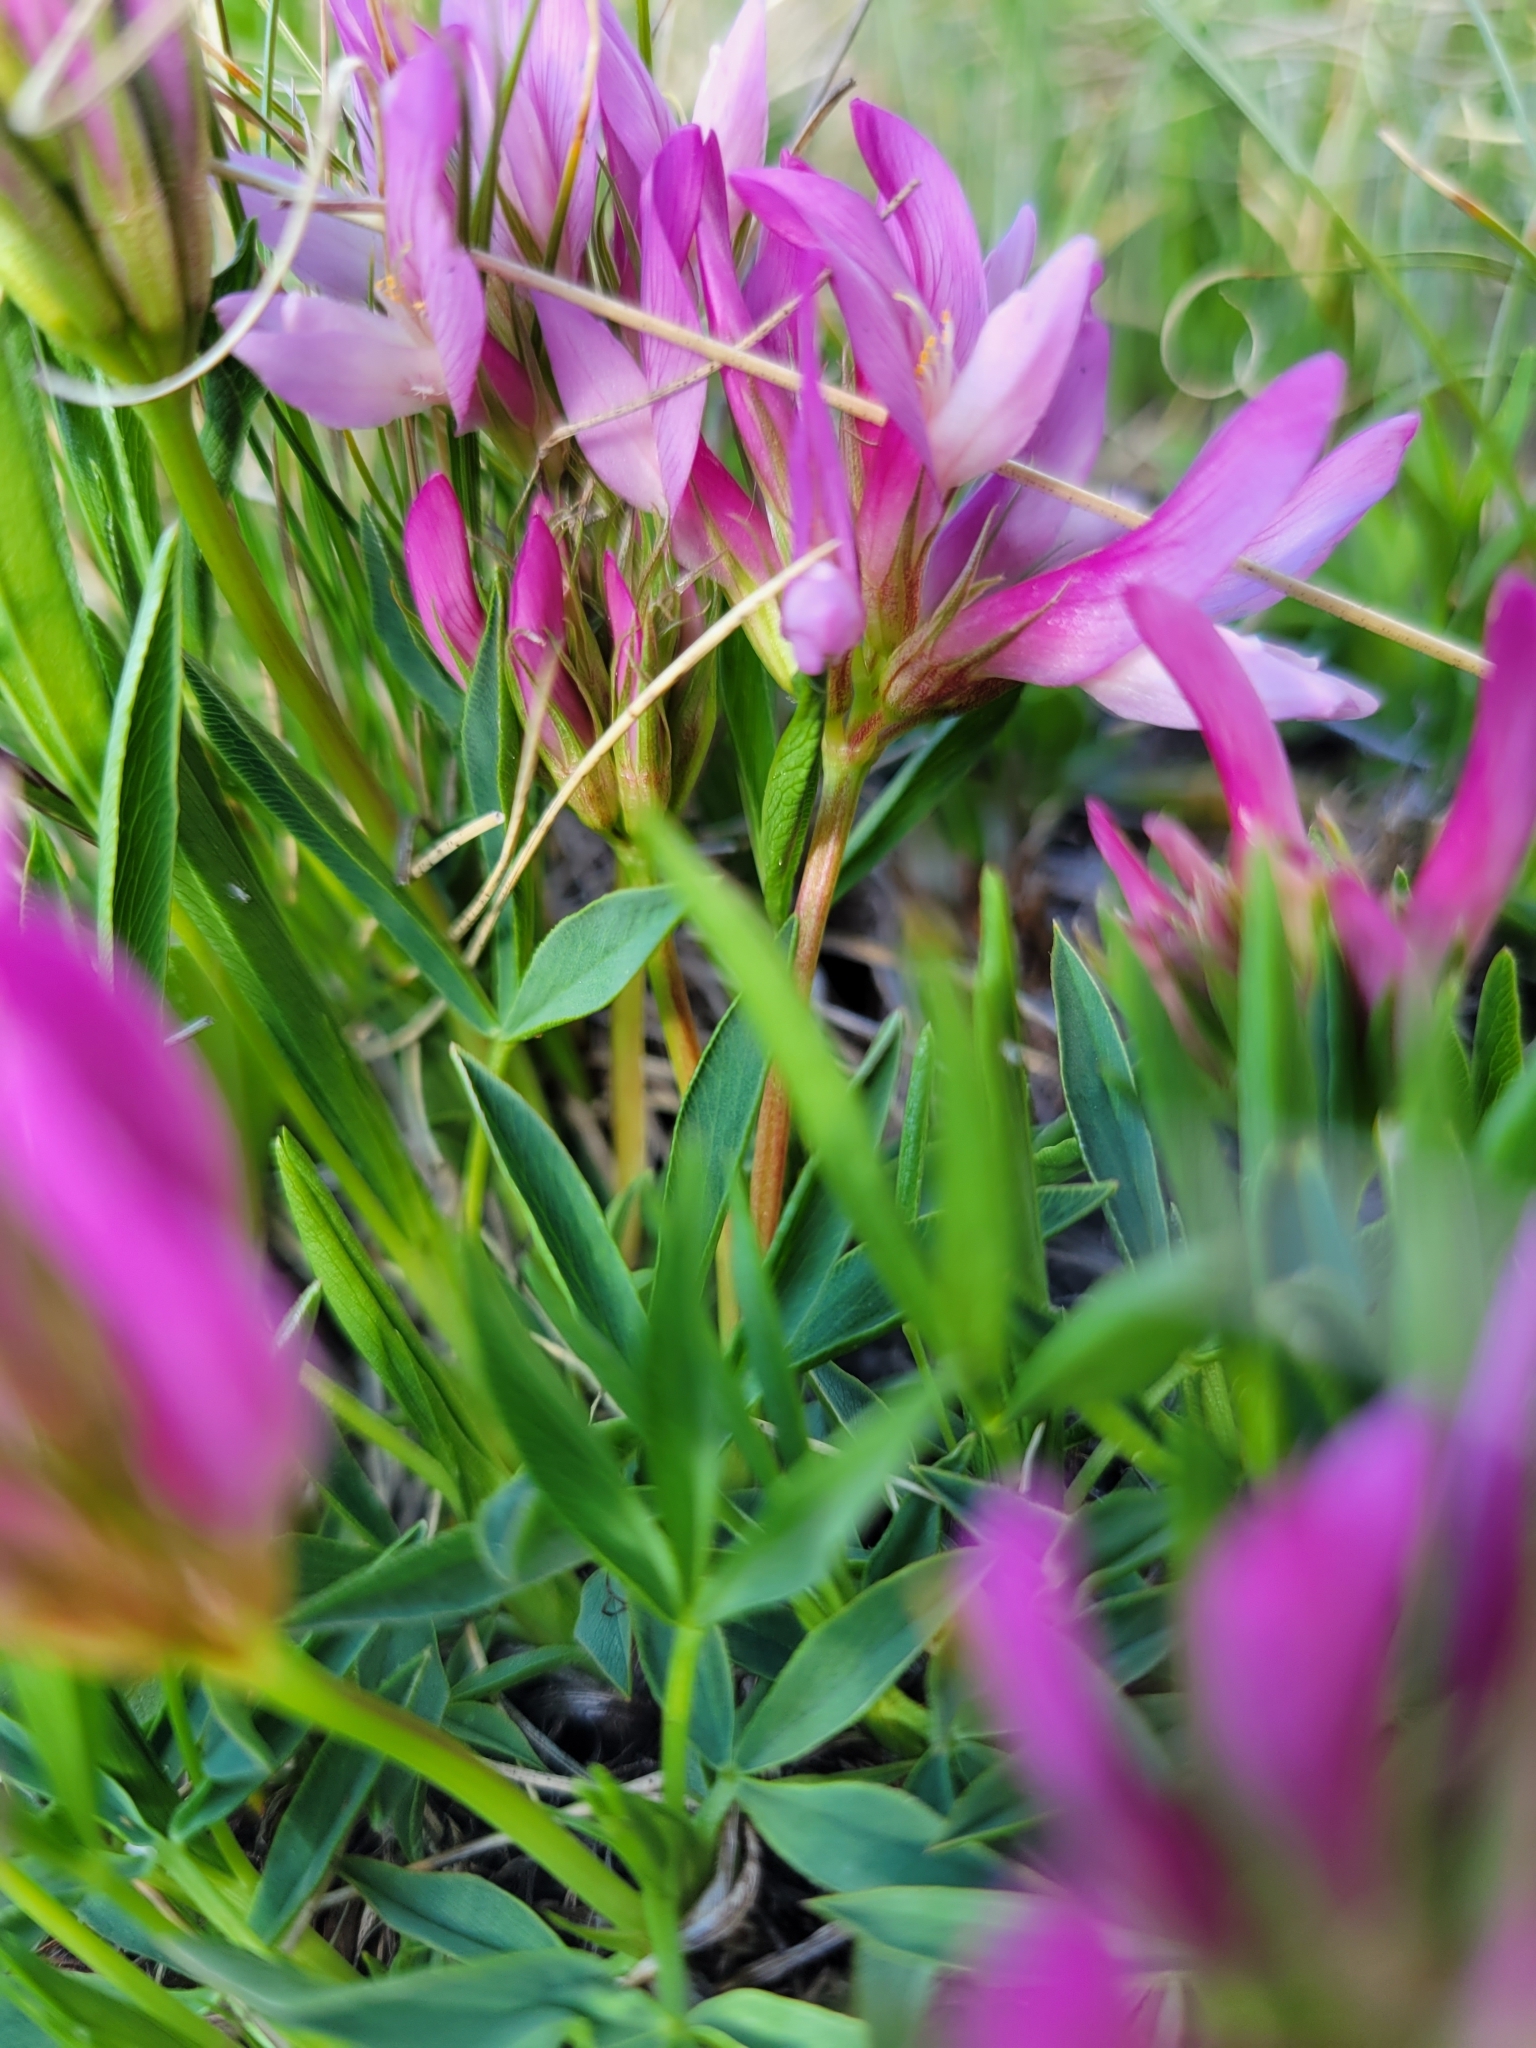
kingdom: Plantae
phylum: Tracheophyta
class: Magnoliopsida
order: Fabales
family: Fabaceae
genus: Trifolium
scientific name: Trifolium alpinum
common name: Alpine clover
